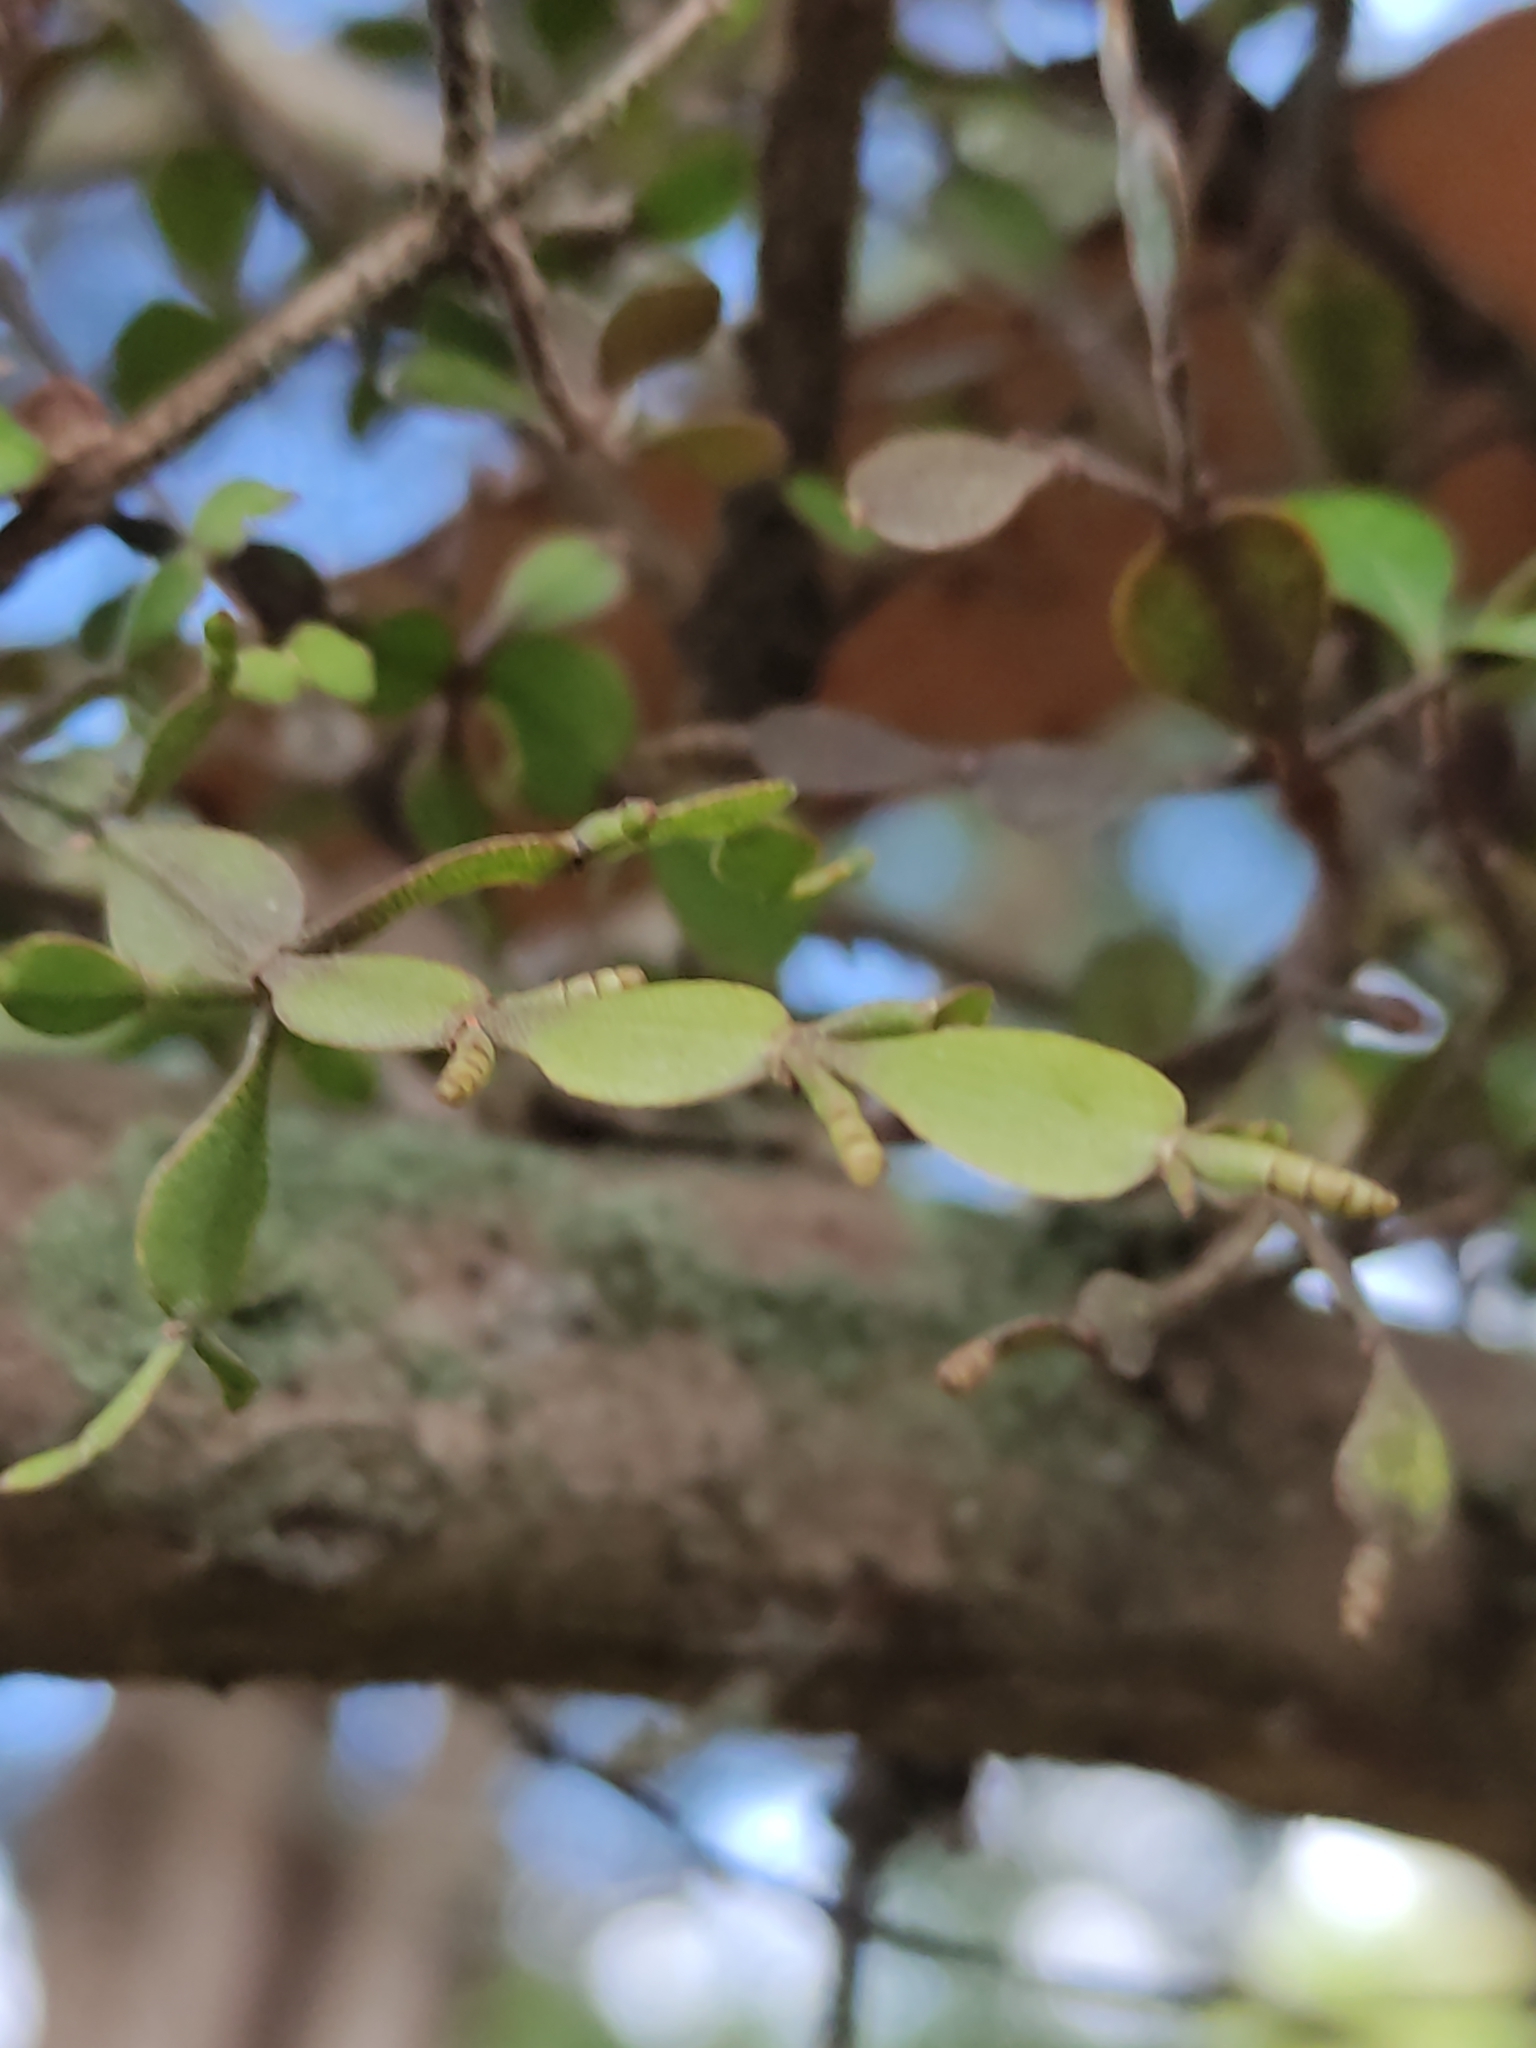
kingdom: Plantae
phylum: Tracheophyta
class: Magnoliopsida
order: Santalales
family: Viscaceae
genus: Korthalsella
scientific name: Korthalsella lindsayi
